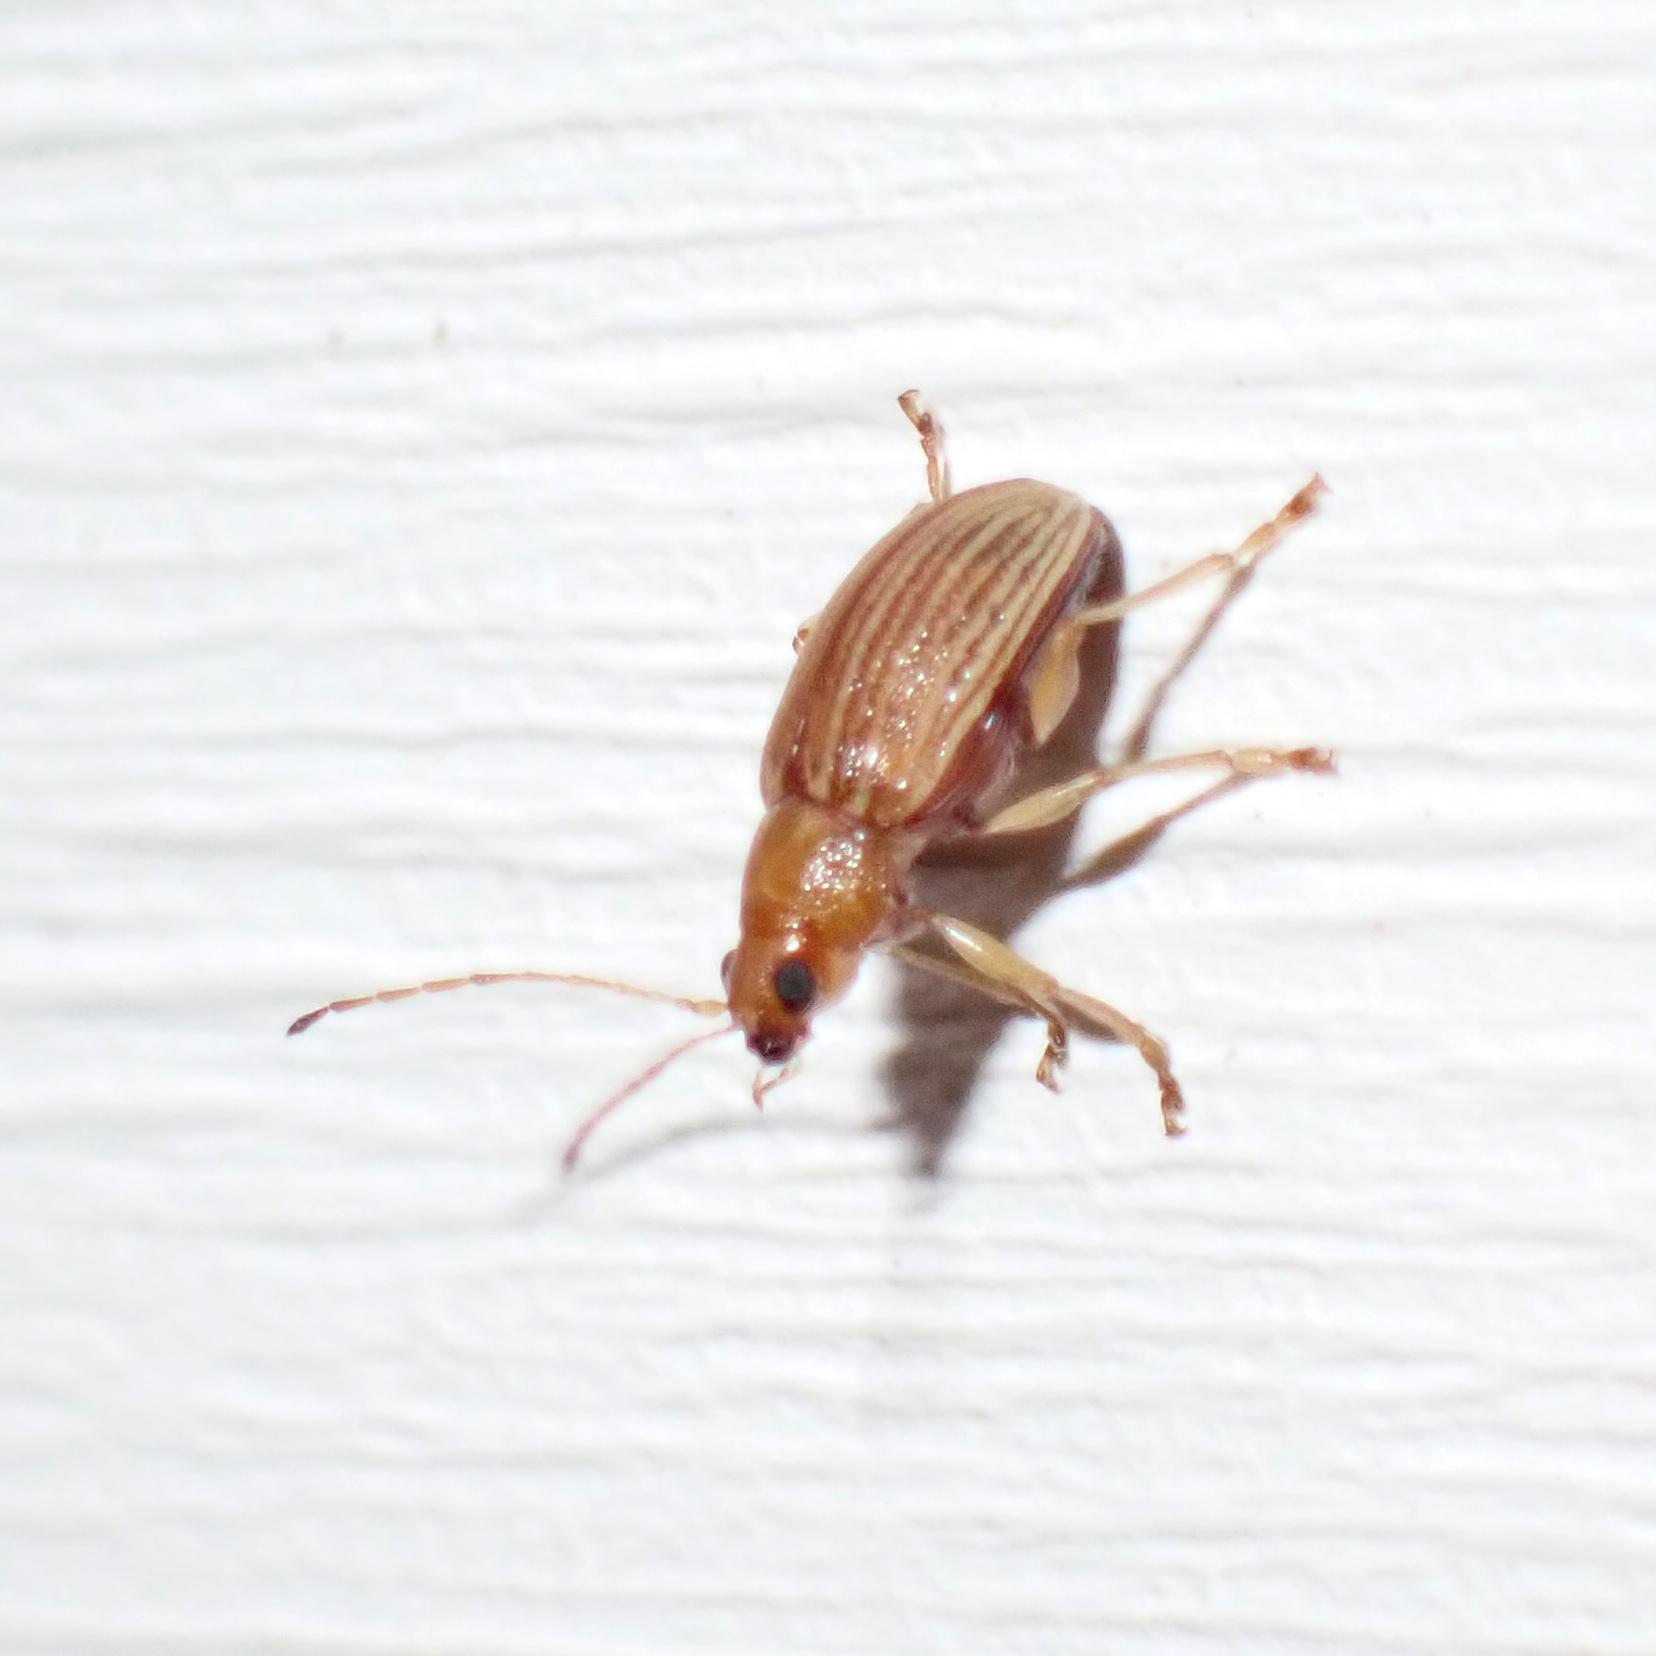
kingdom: Animalia
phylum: Arthropoda
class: Insecta
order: Coleoptera
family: Chrysomelidae
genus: Colaspis
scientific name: Colaspis brunnea
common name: Grape colaspis
